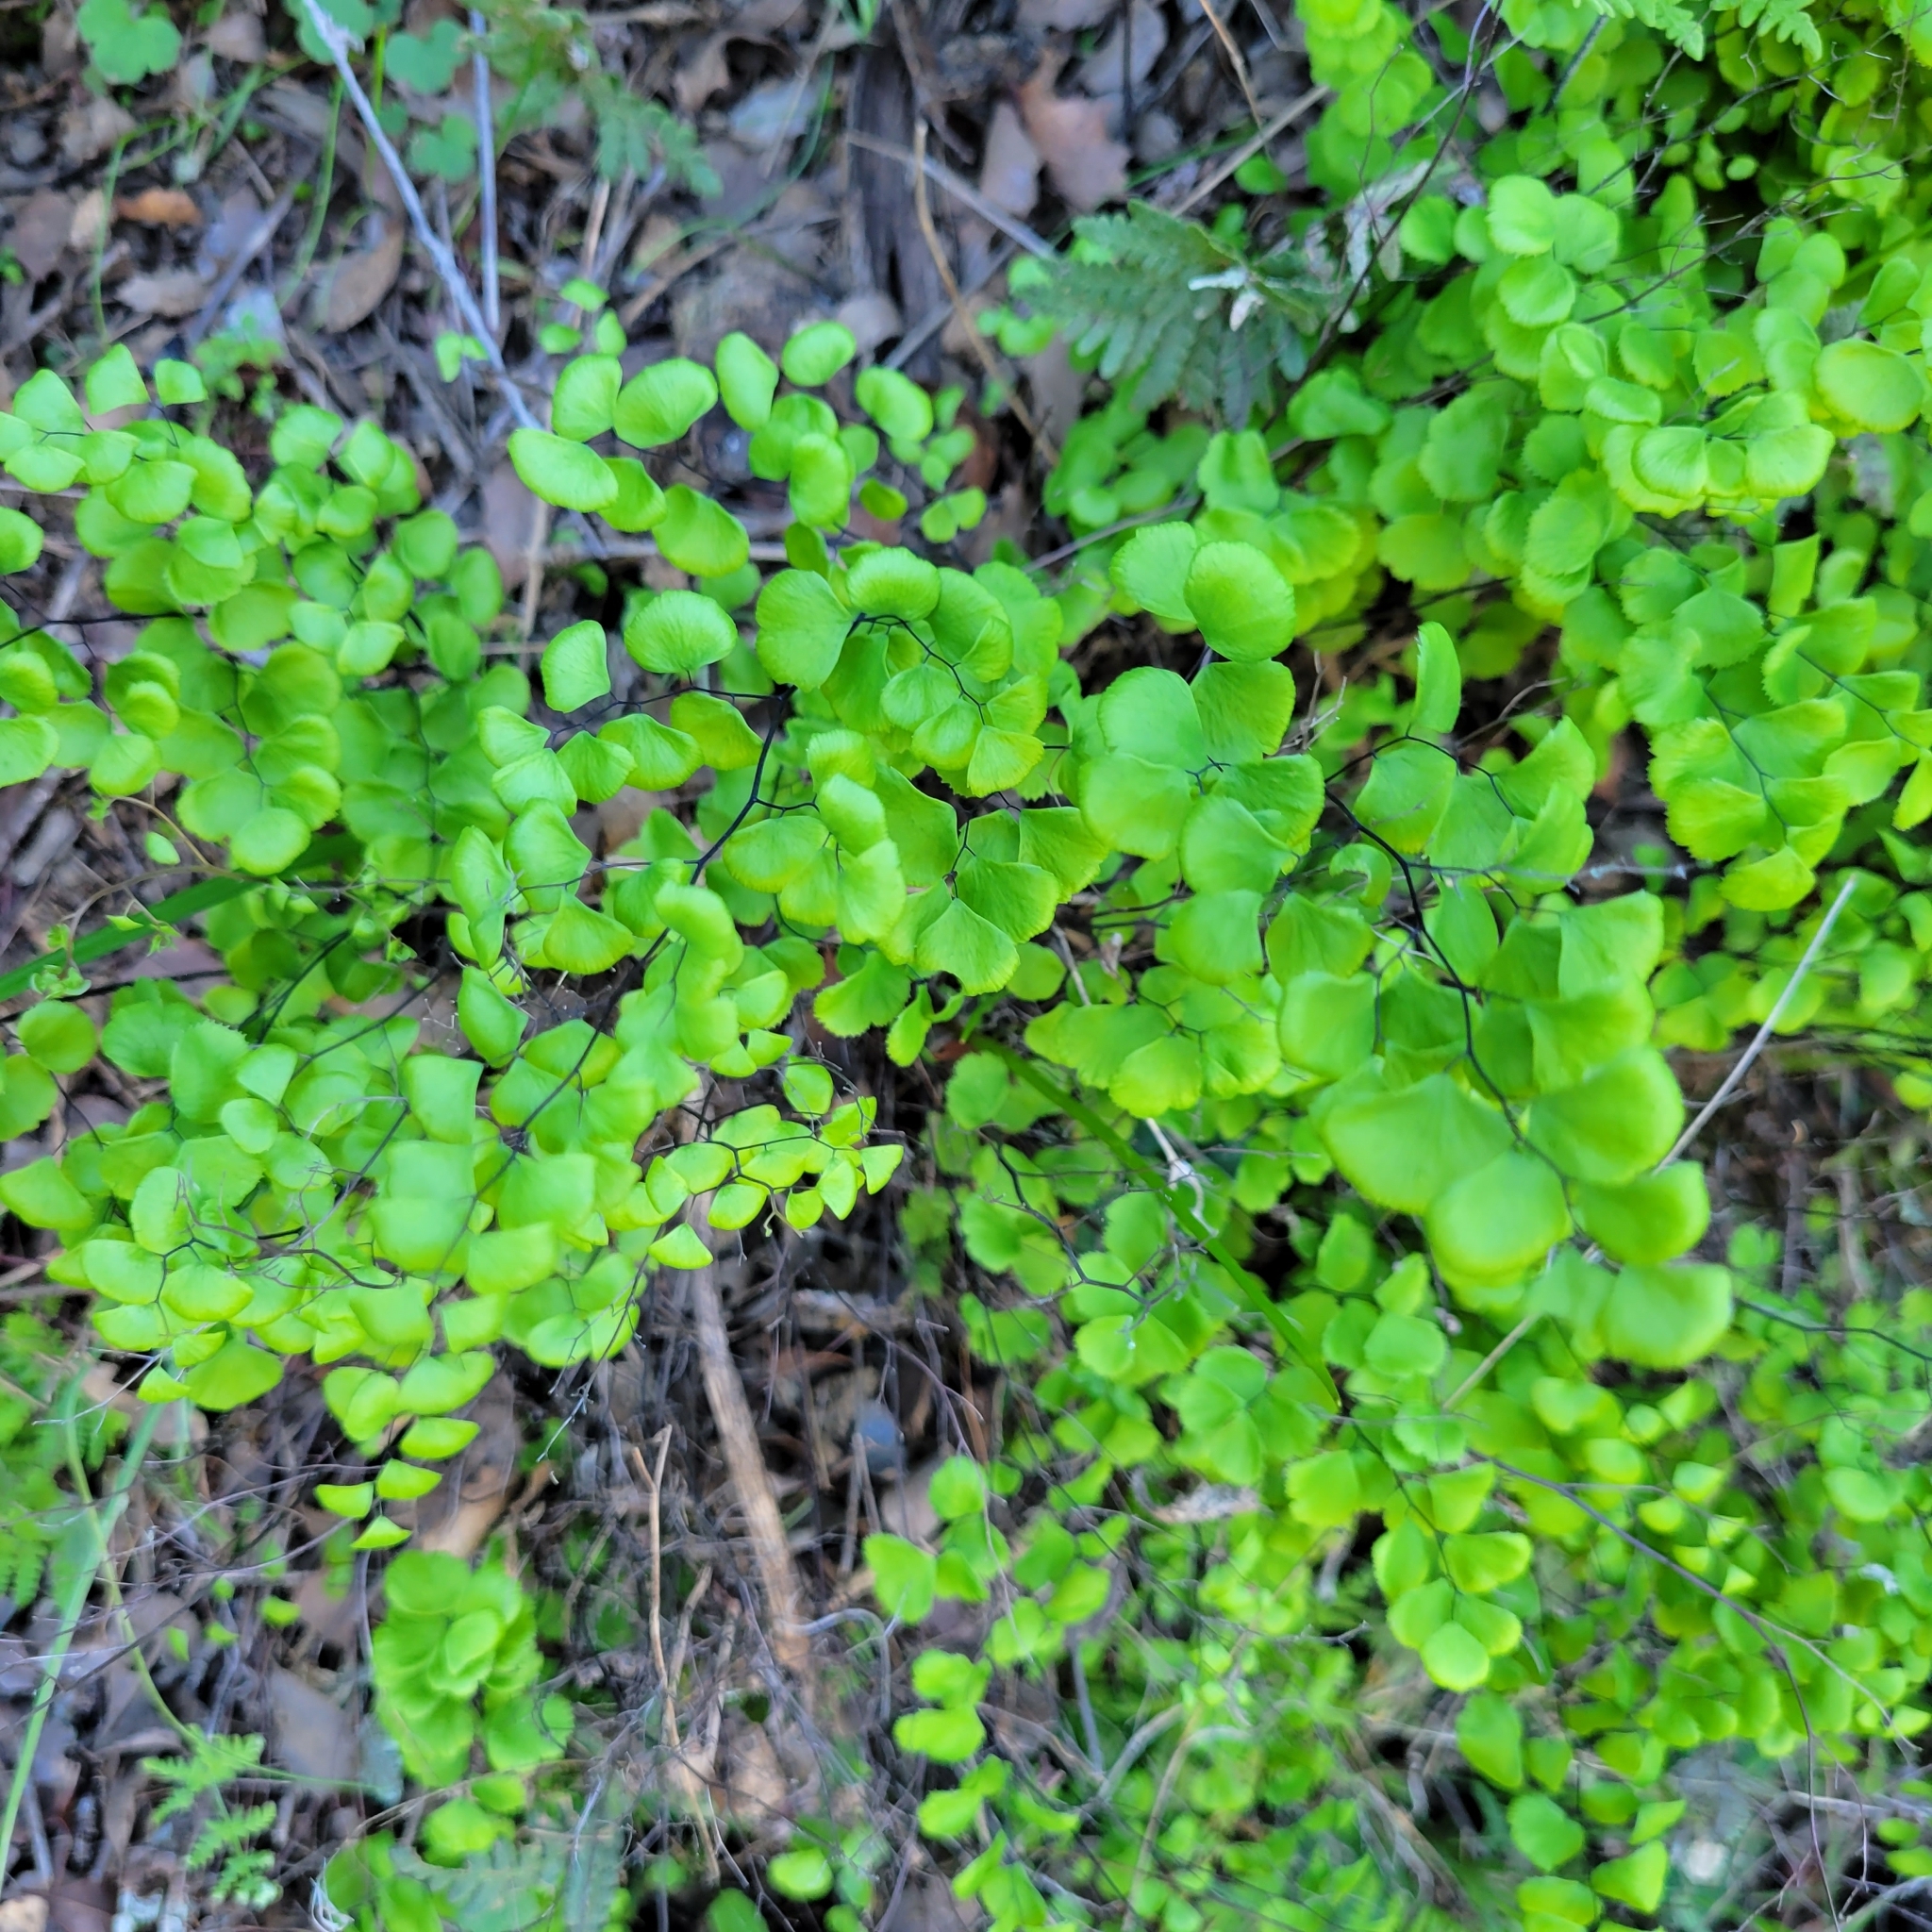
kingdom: Plantae
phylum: Tracheophyta
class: Polypodiopsida
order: Polypodiales
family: Pteridaceae
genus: Adiantum
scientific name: Adiantum jordanii
